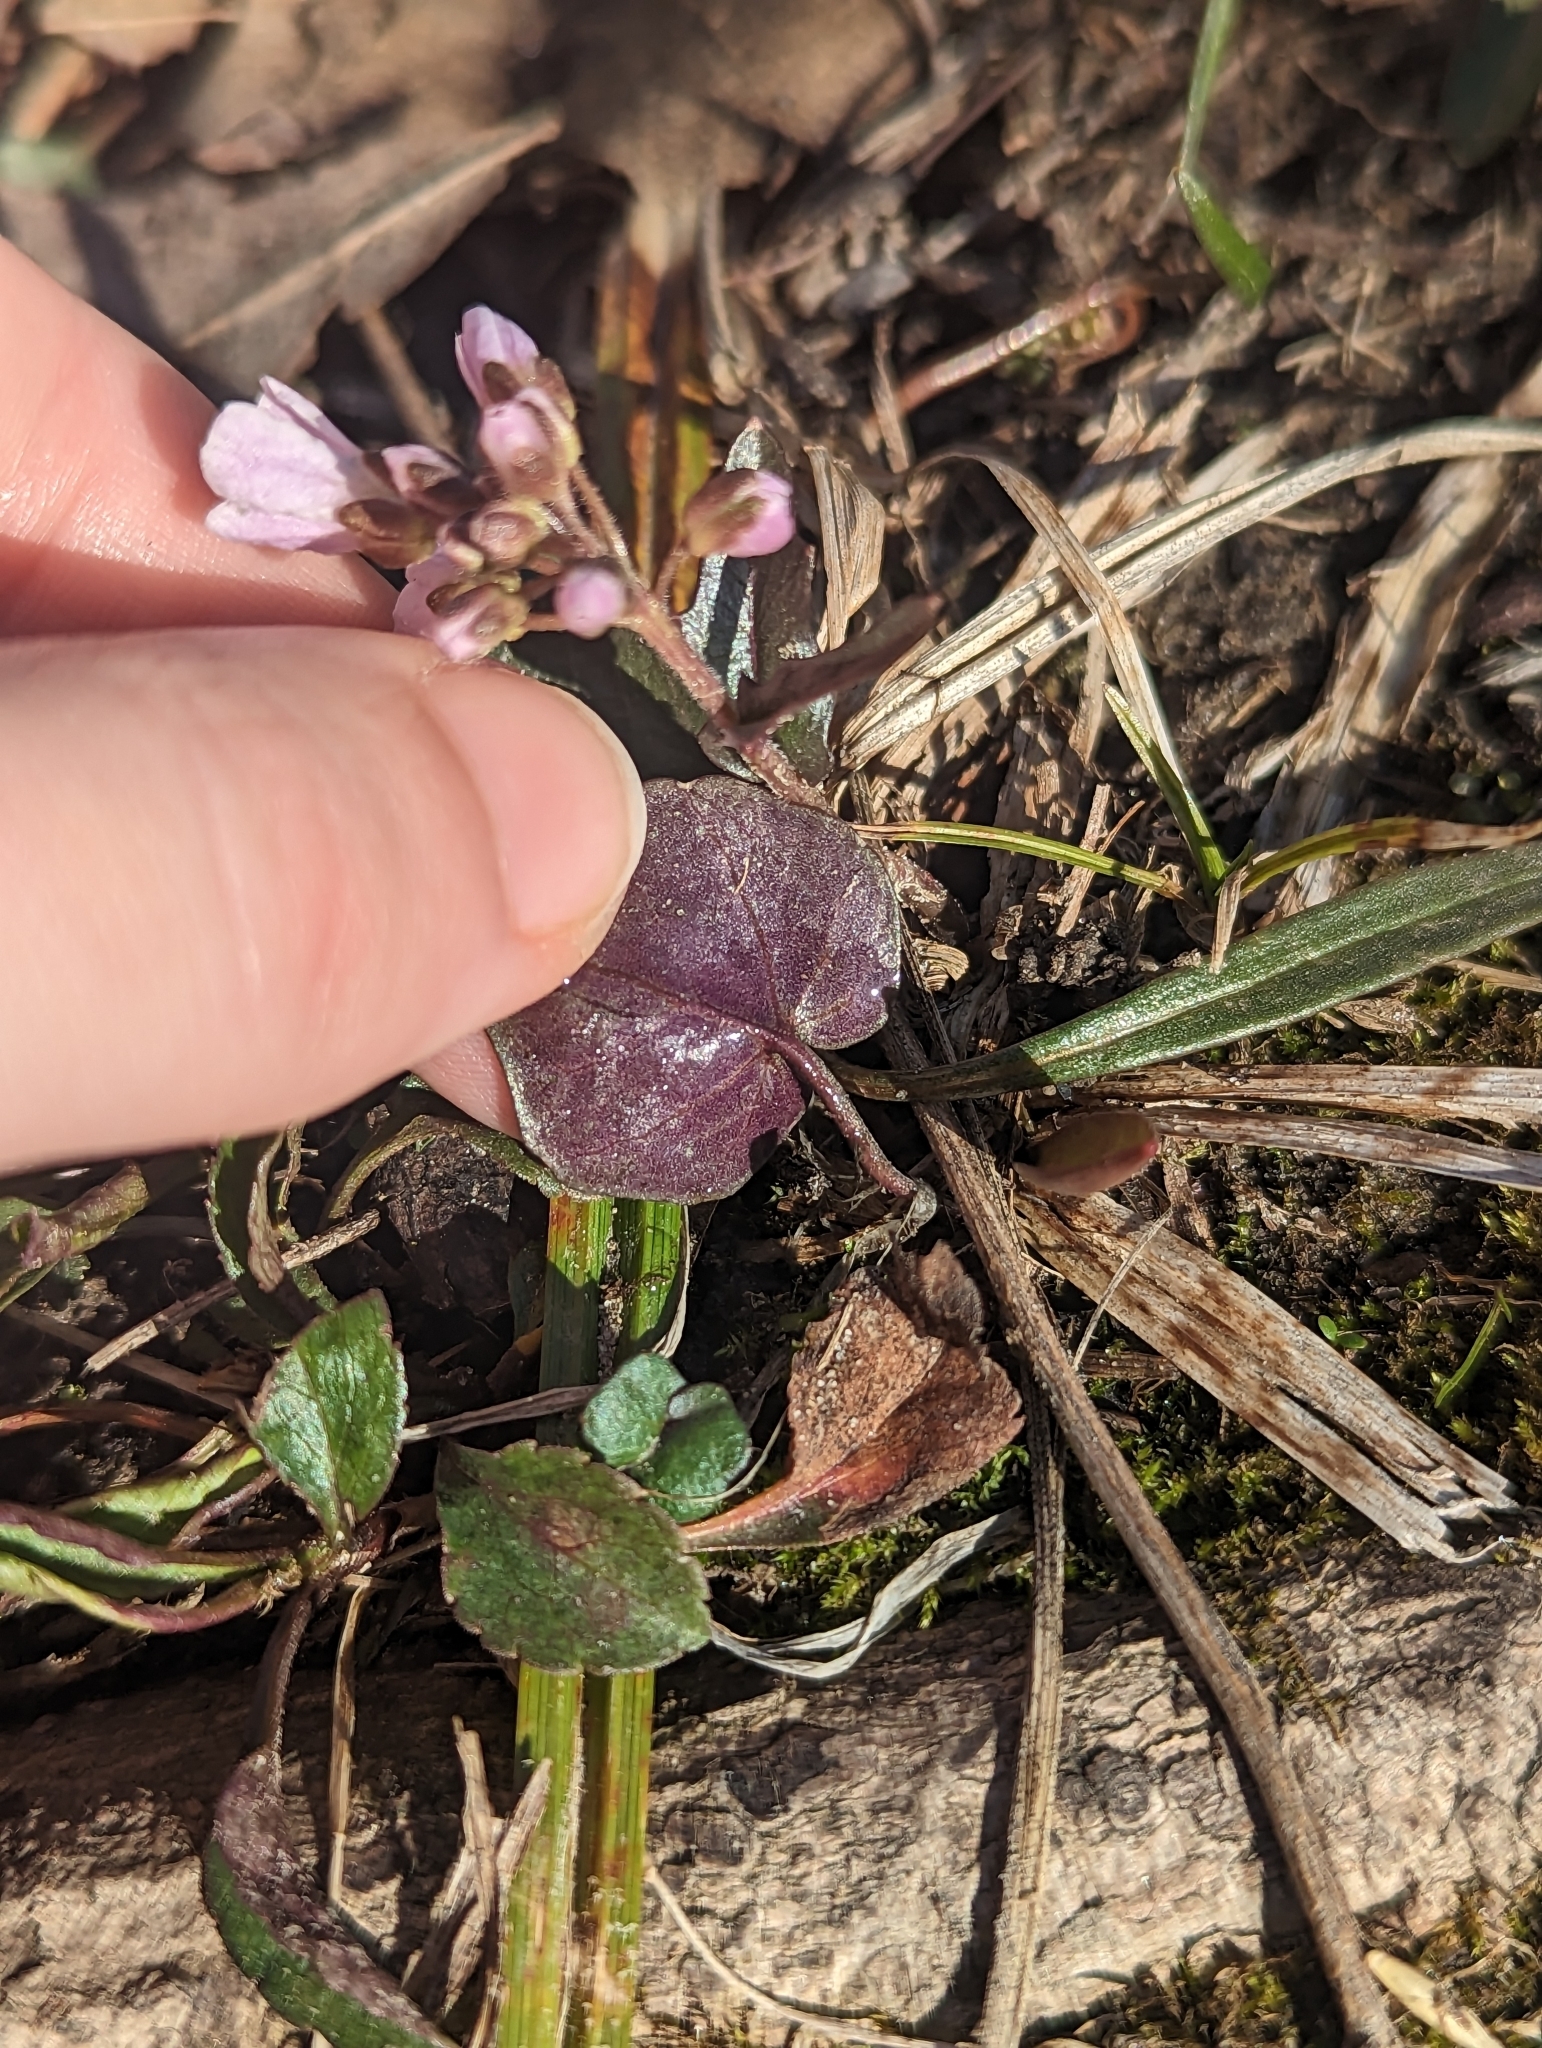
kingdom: Plantae
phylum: Tracheophyta
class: Magnoliopsida
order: Brassicales
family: Brassicaceae
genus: Cardamine
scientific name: Cardamine douglassii
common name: Purple cress
